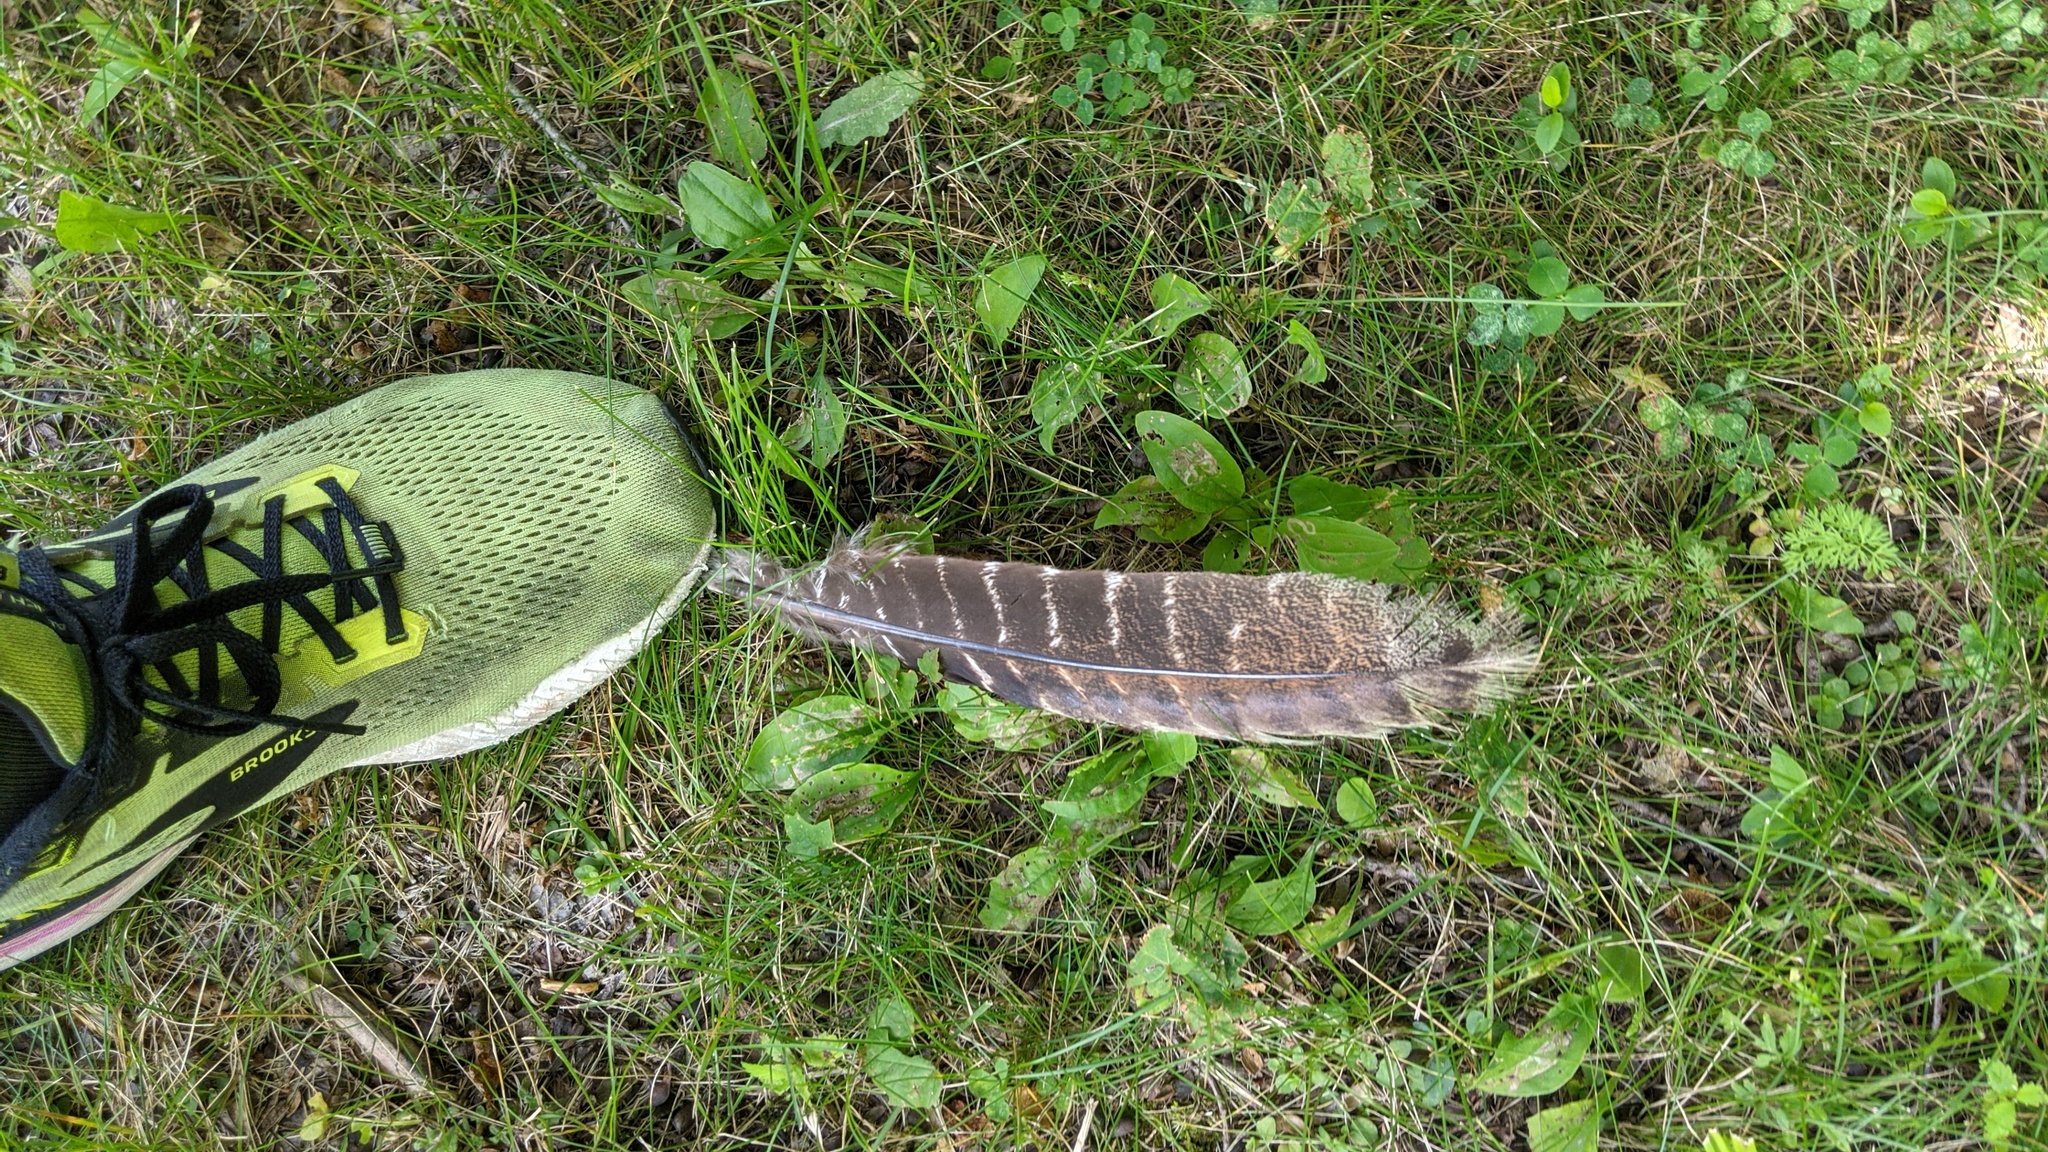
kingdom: Animalia
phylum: Chordata
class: Aves
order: Galliformes
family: Phasianidae
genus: Meleagris
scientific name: Meleagris gallopavo
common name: Wild turkey
